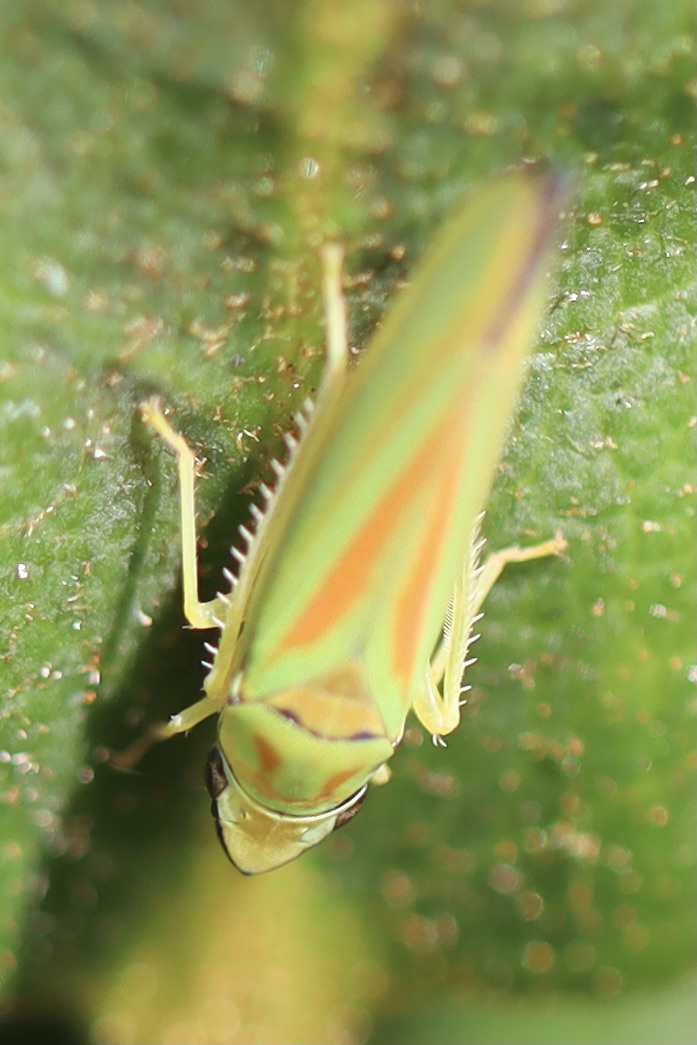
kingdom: Animalia
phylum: Arthropoda
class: Insecta
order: Hemiptera
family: Cicadellidae
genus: Graphocephala
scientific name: Graphocephala fennahi
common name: Rhododendron leafhopper
